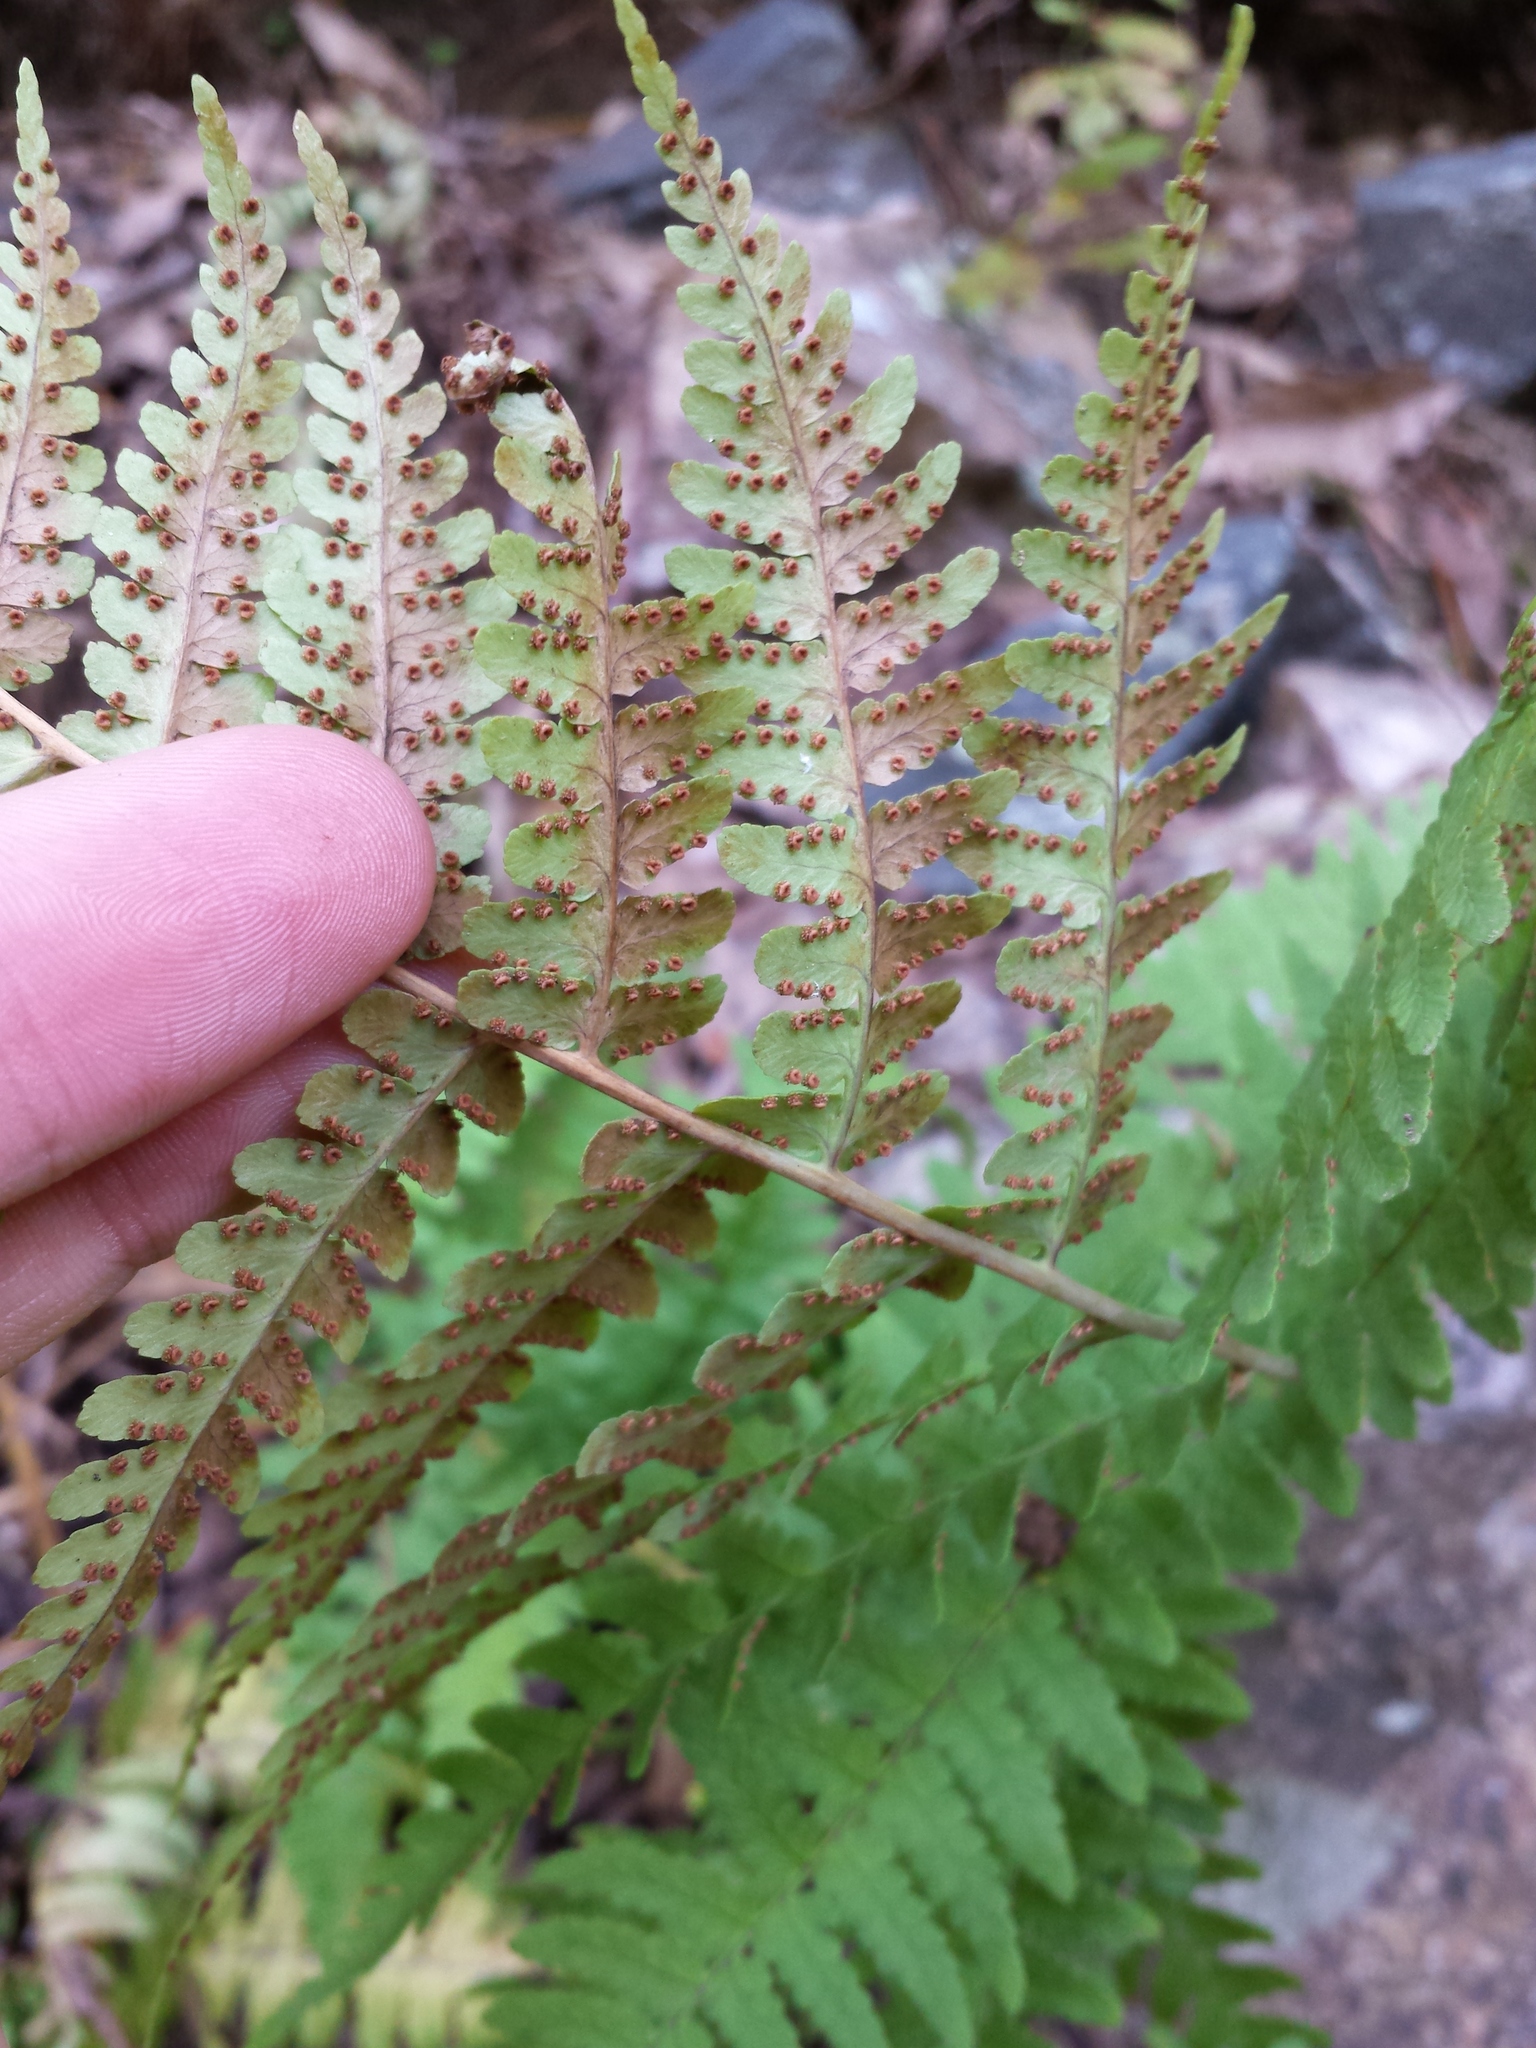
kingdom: Plantae
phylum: Tracheophyta
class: Polypodiopsida
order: Polypodiales
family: Dryopteridaceae
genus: Dryopteris
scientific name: Dryopteris marginalis
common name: Marginal wood fern
